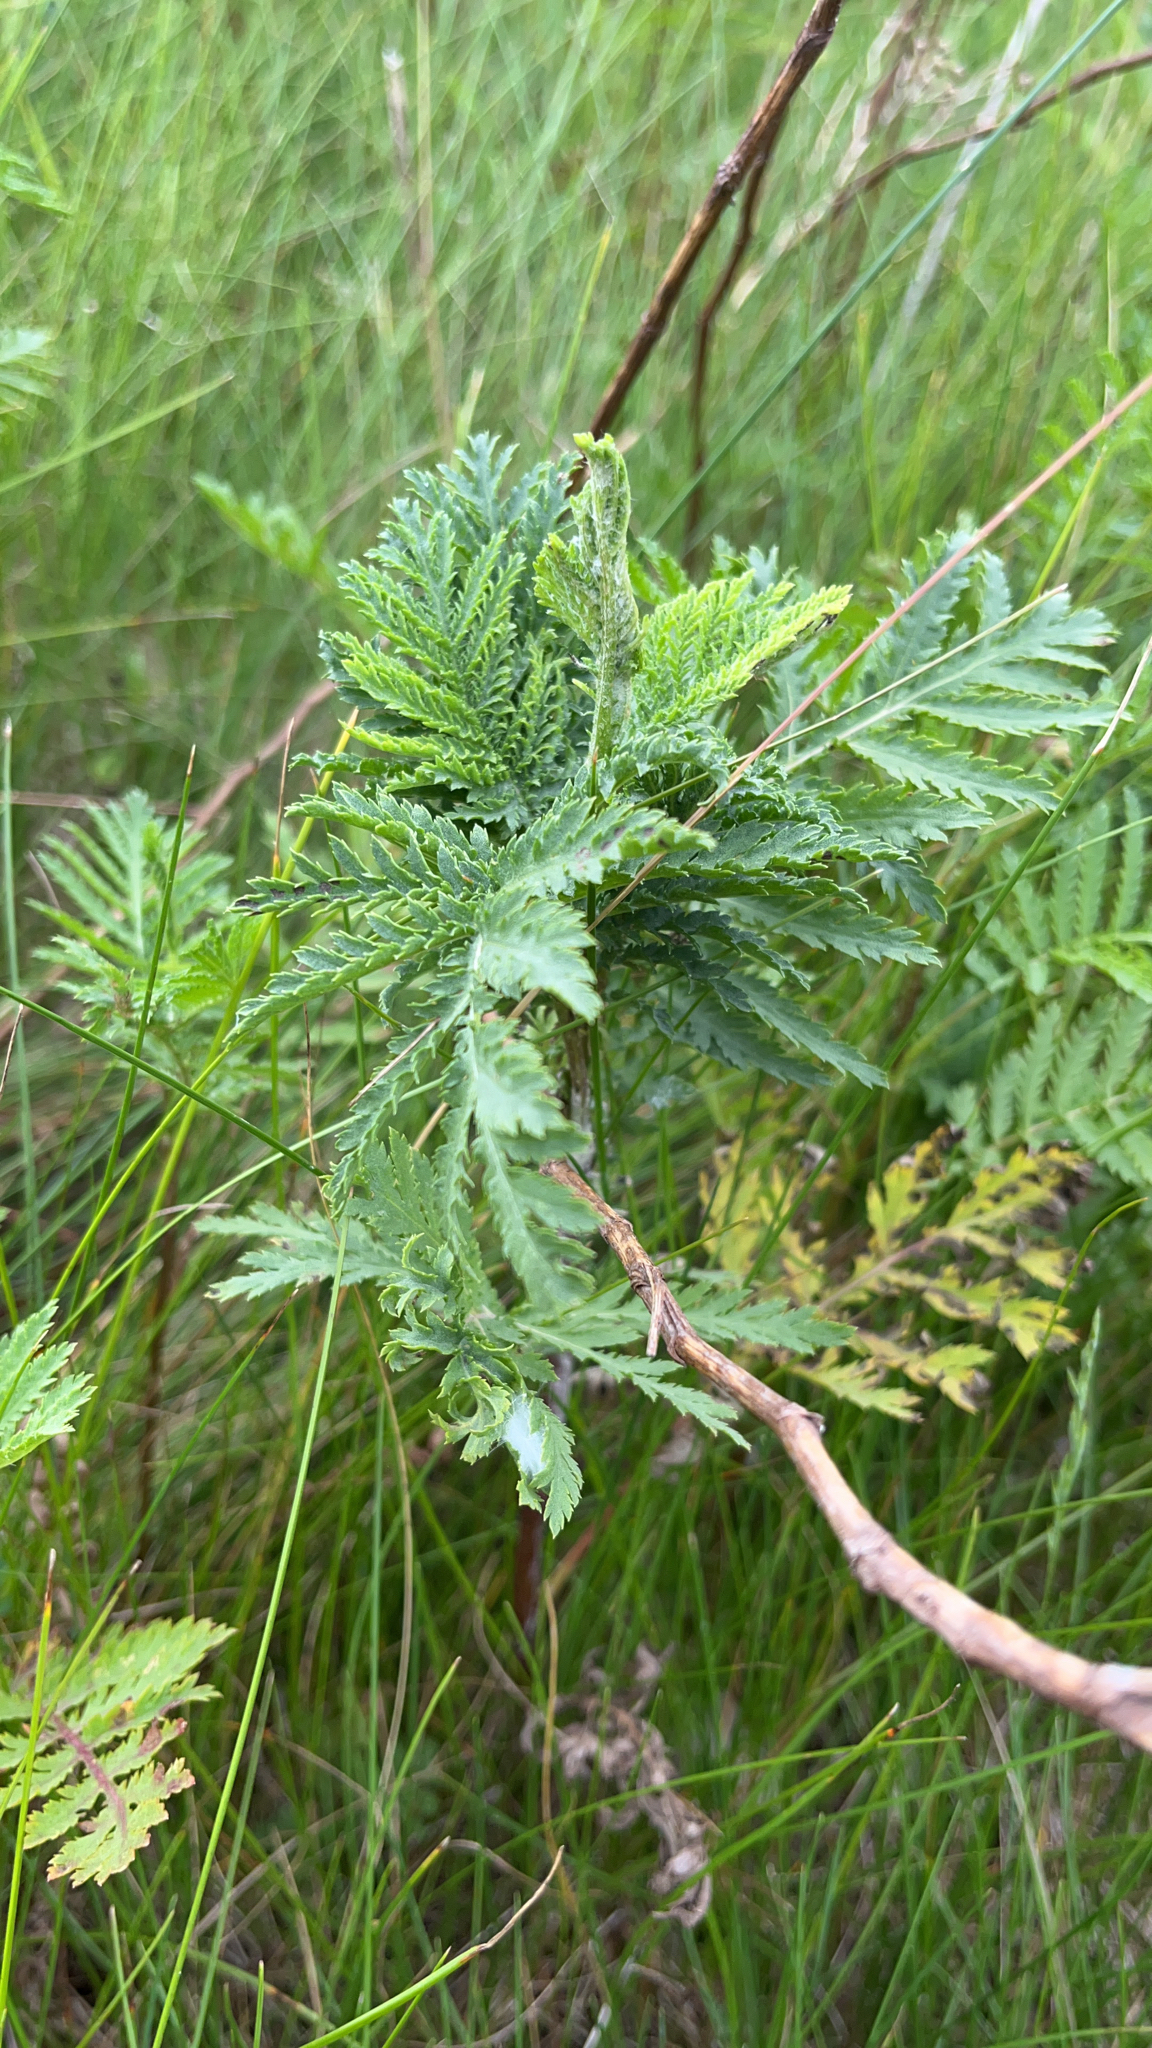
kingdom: Plantae
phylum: Tracheophyta
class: Magnoliopsida
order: Asterales
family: Asteraceae
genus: Tanacetum
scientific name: Tanacetum vulgare
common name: Common tansy
